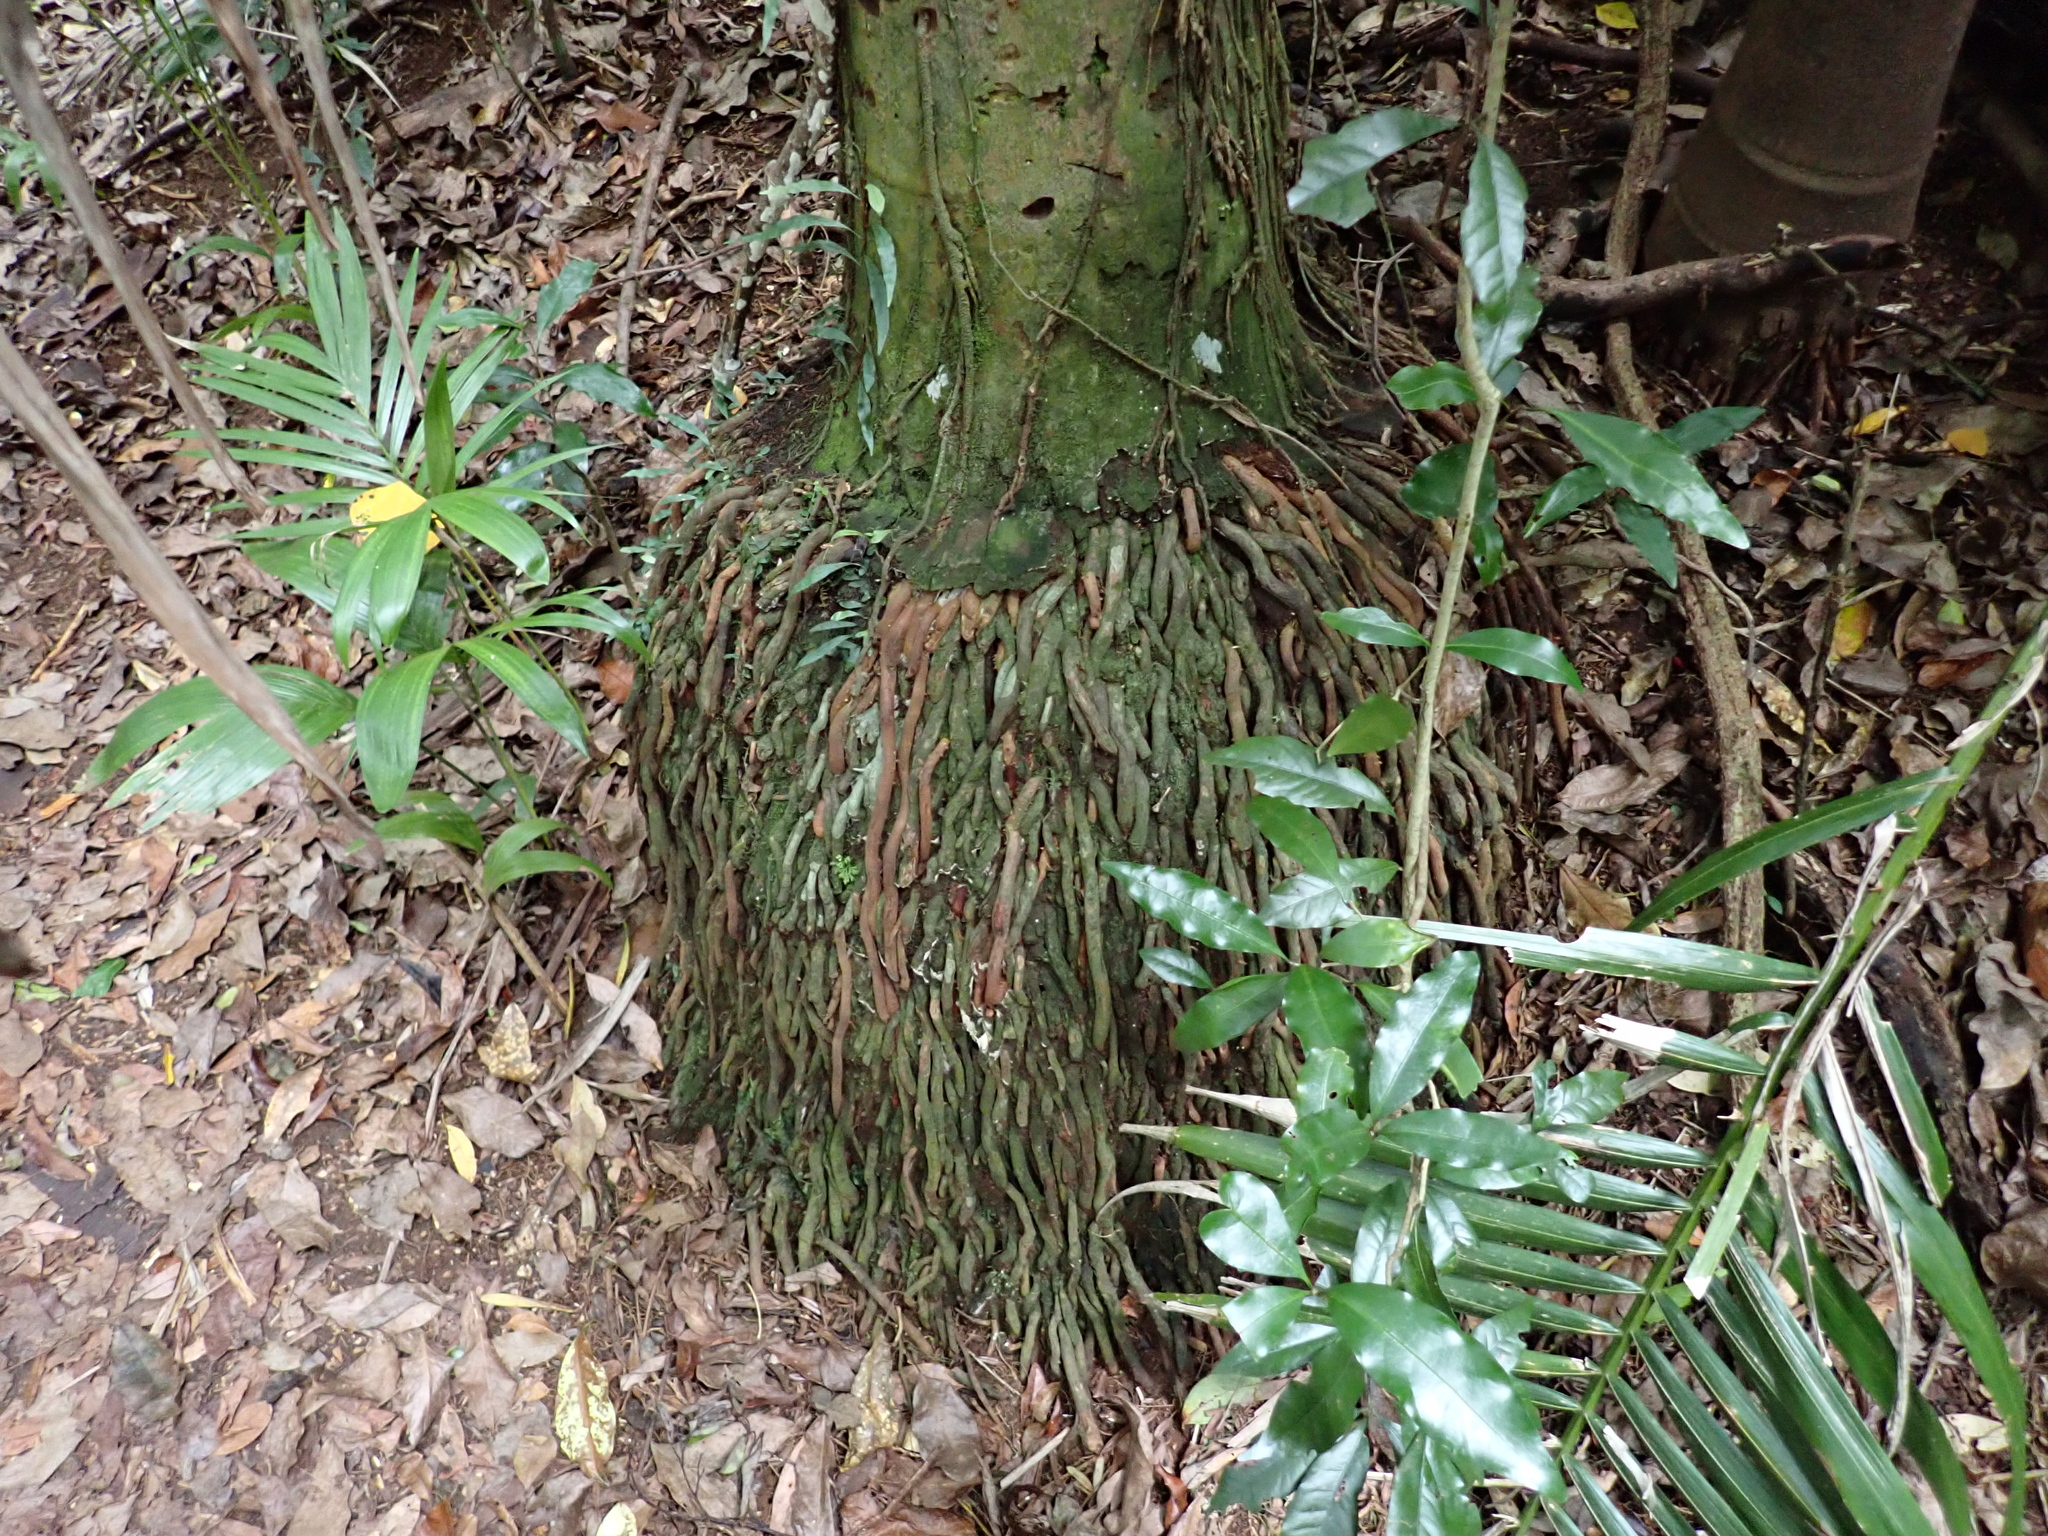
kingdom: Plantae
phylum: Tracheophyta
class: Liliopsida
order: Arecales
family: Arecaceae
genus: Archontophoenix
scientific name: Archontophoenix cunninghamiana
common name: Piccabeen bangalow palm
